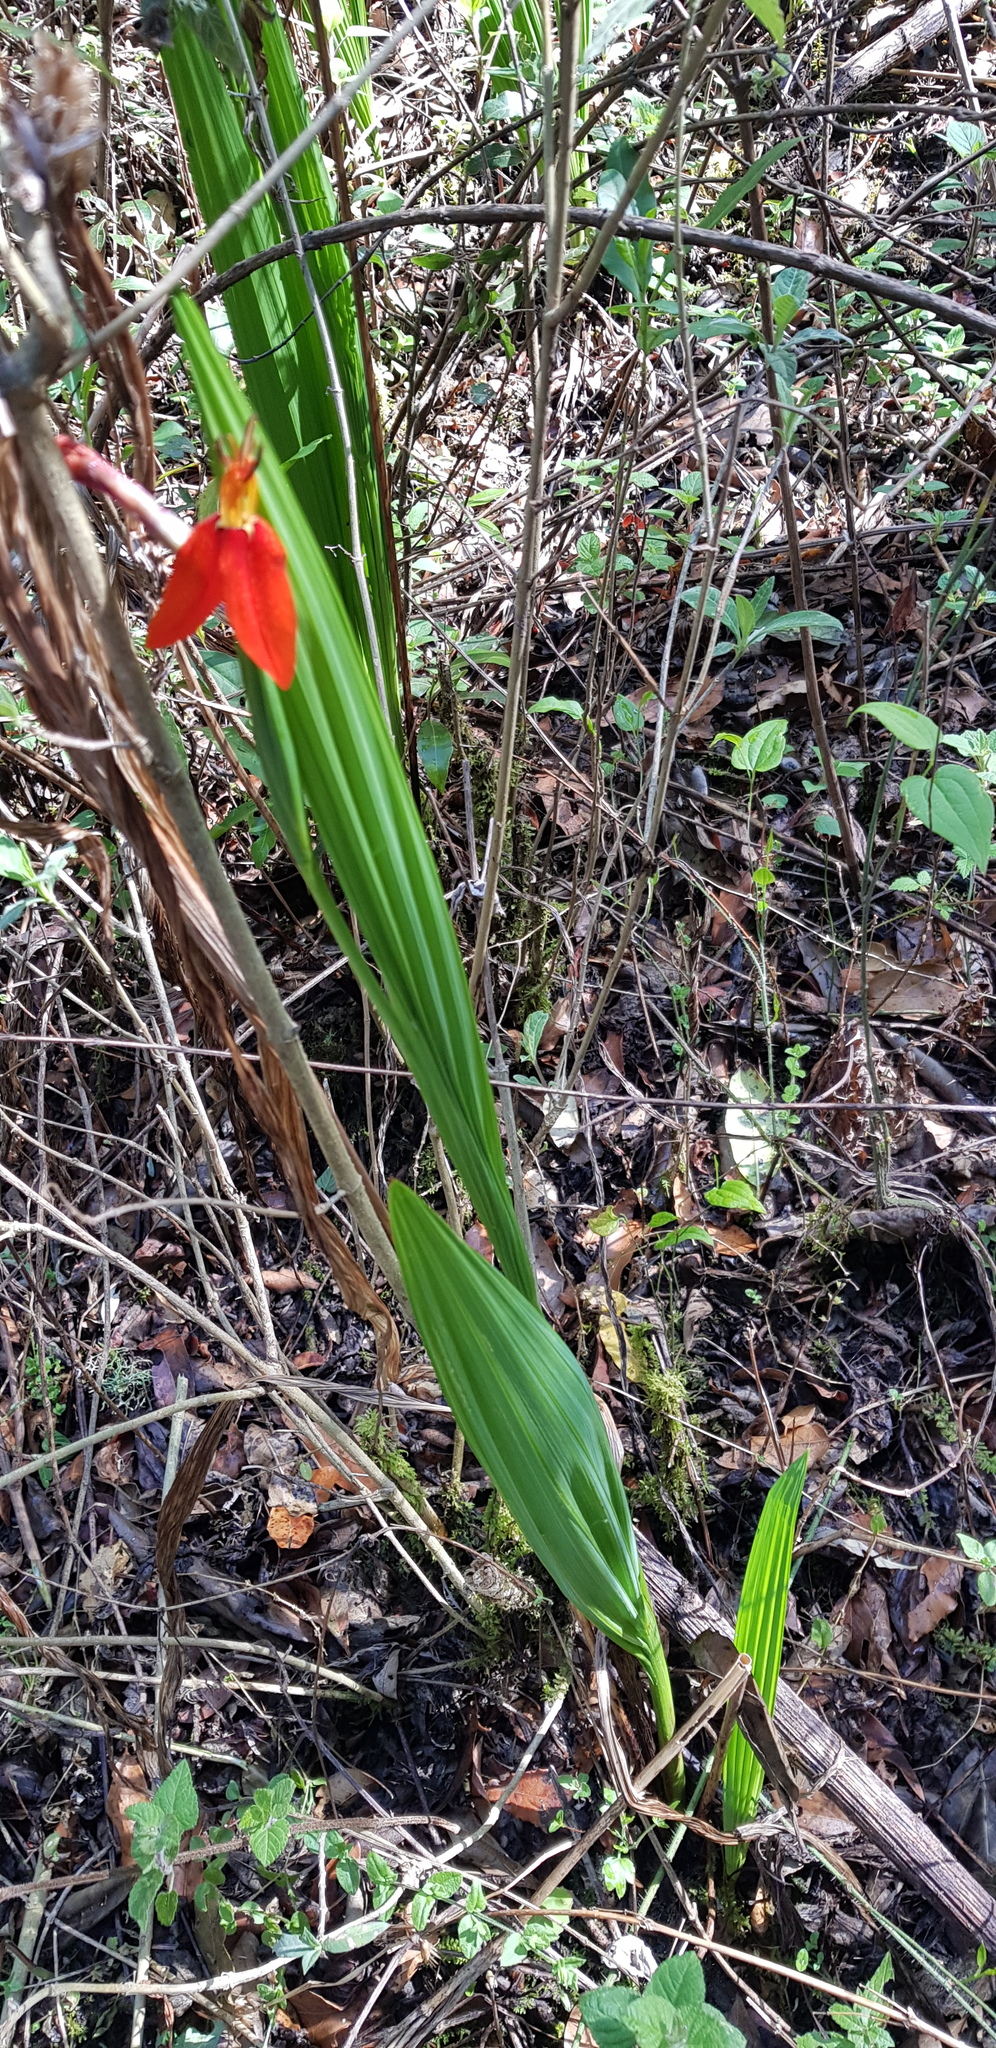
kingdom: Plantae
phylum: Tracheophyta
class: Liliopsida
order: Asparagales
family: Iridaceae
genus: Tigridia
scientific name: Tigridia orthantha
